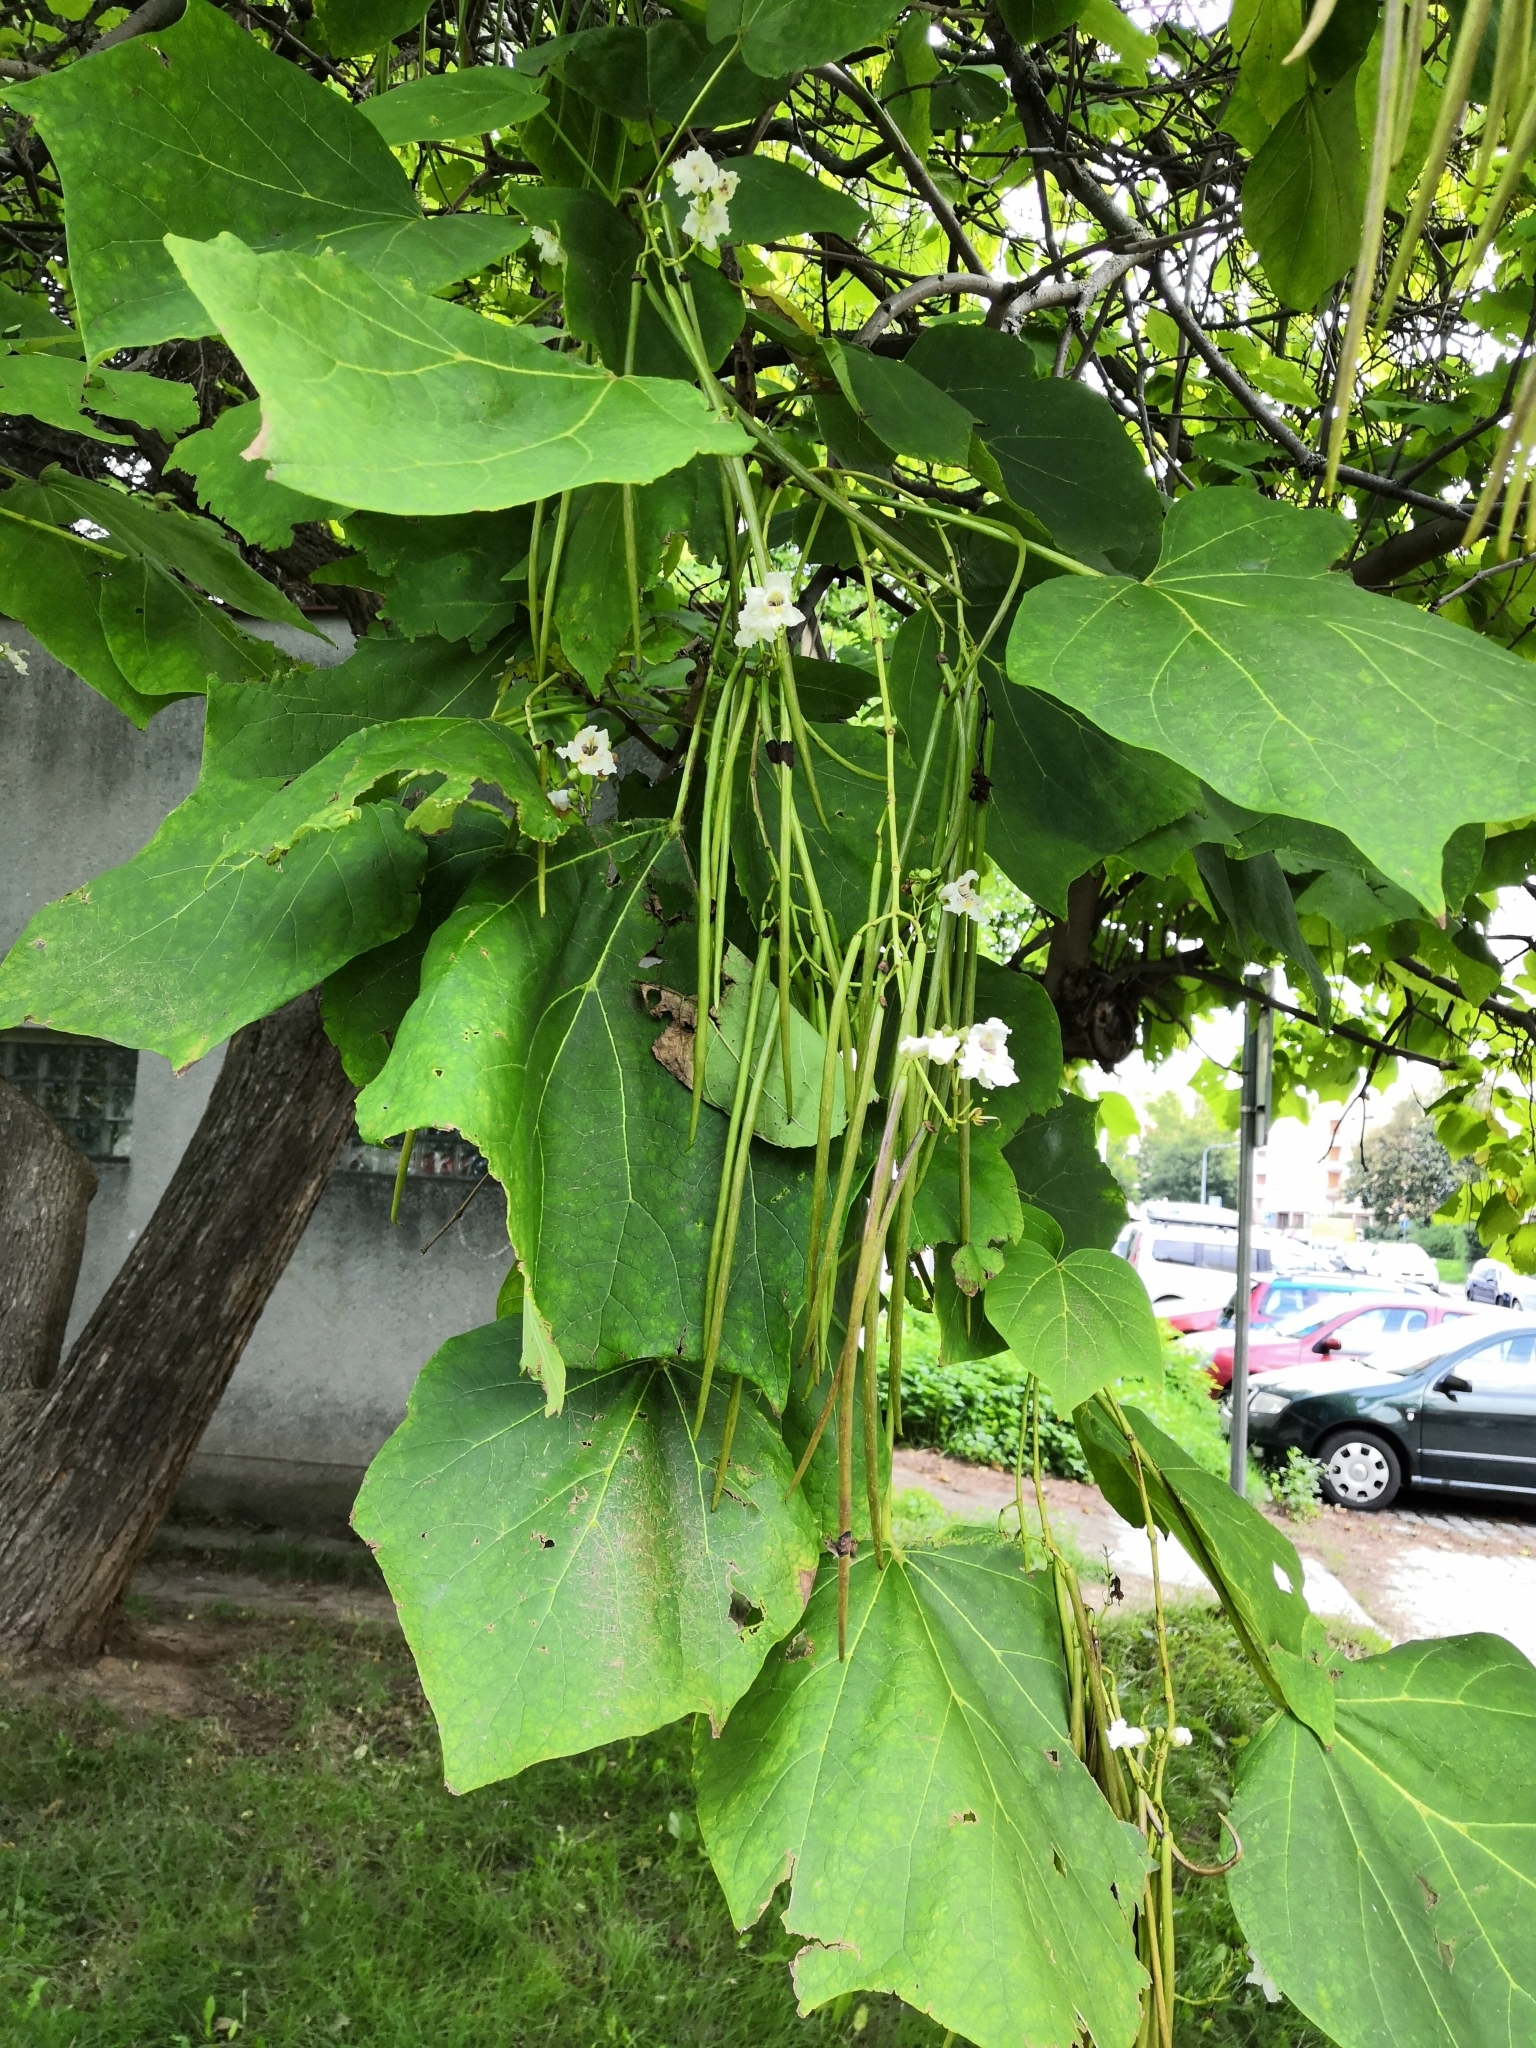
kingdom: Plantae
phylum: Tracheophyta
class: Magnoliopsida
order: Lamiales
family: Bignoniaceae
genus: Catalpa
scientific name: Catalpa bignonioides
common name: Southern catalpa
